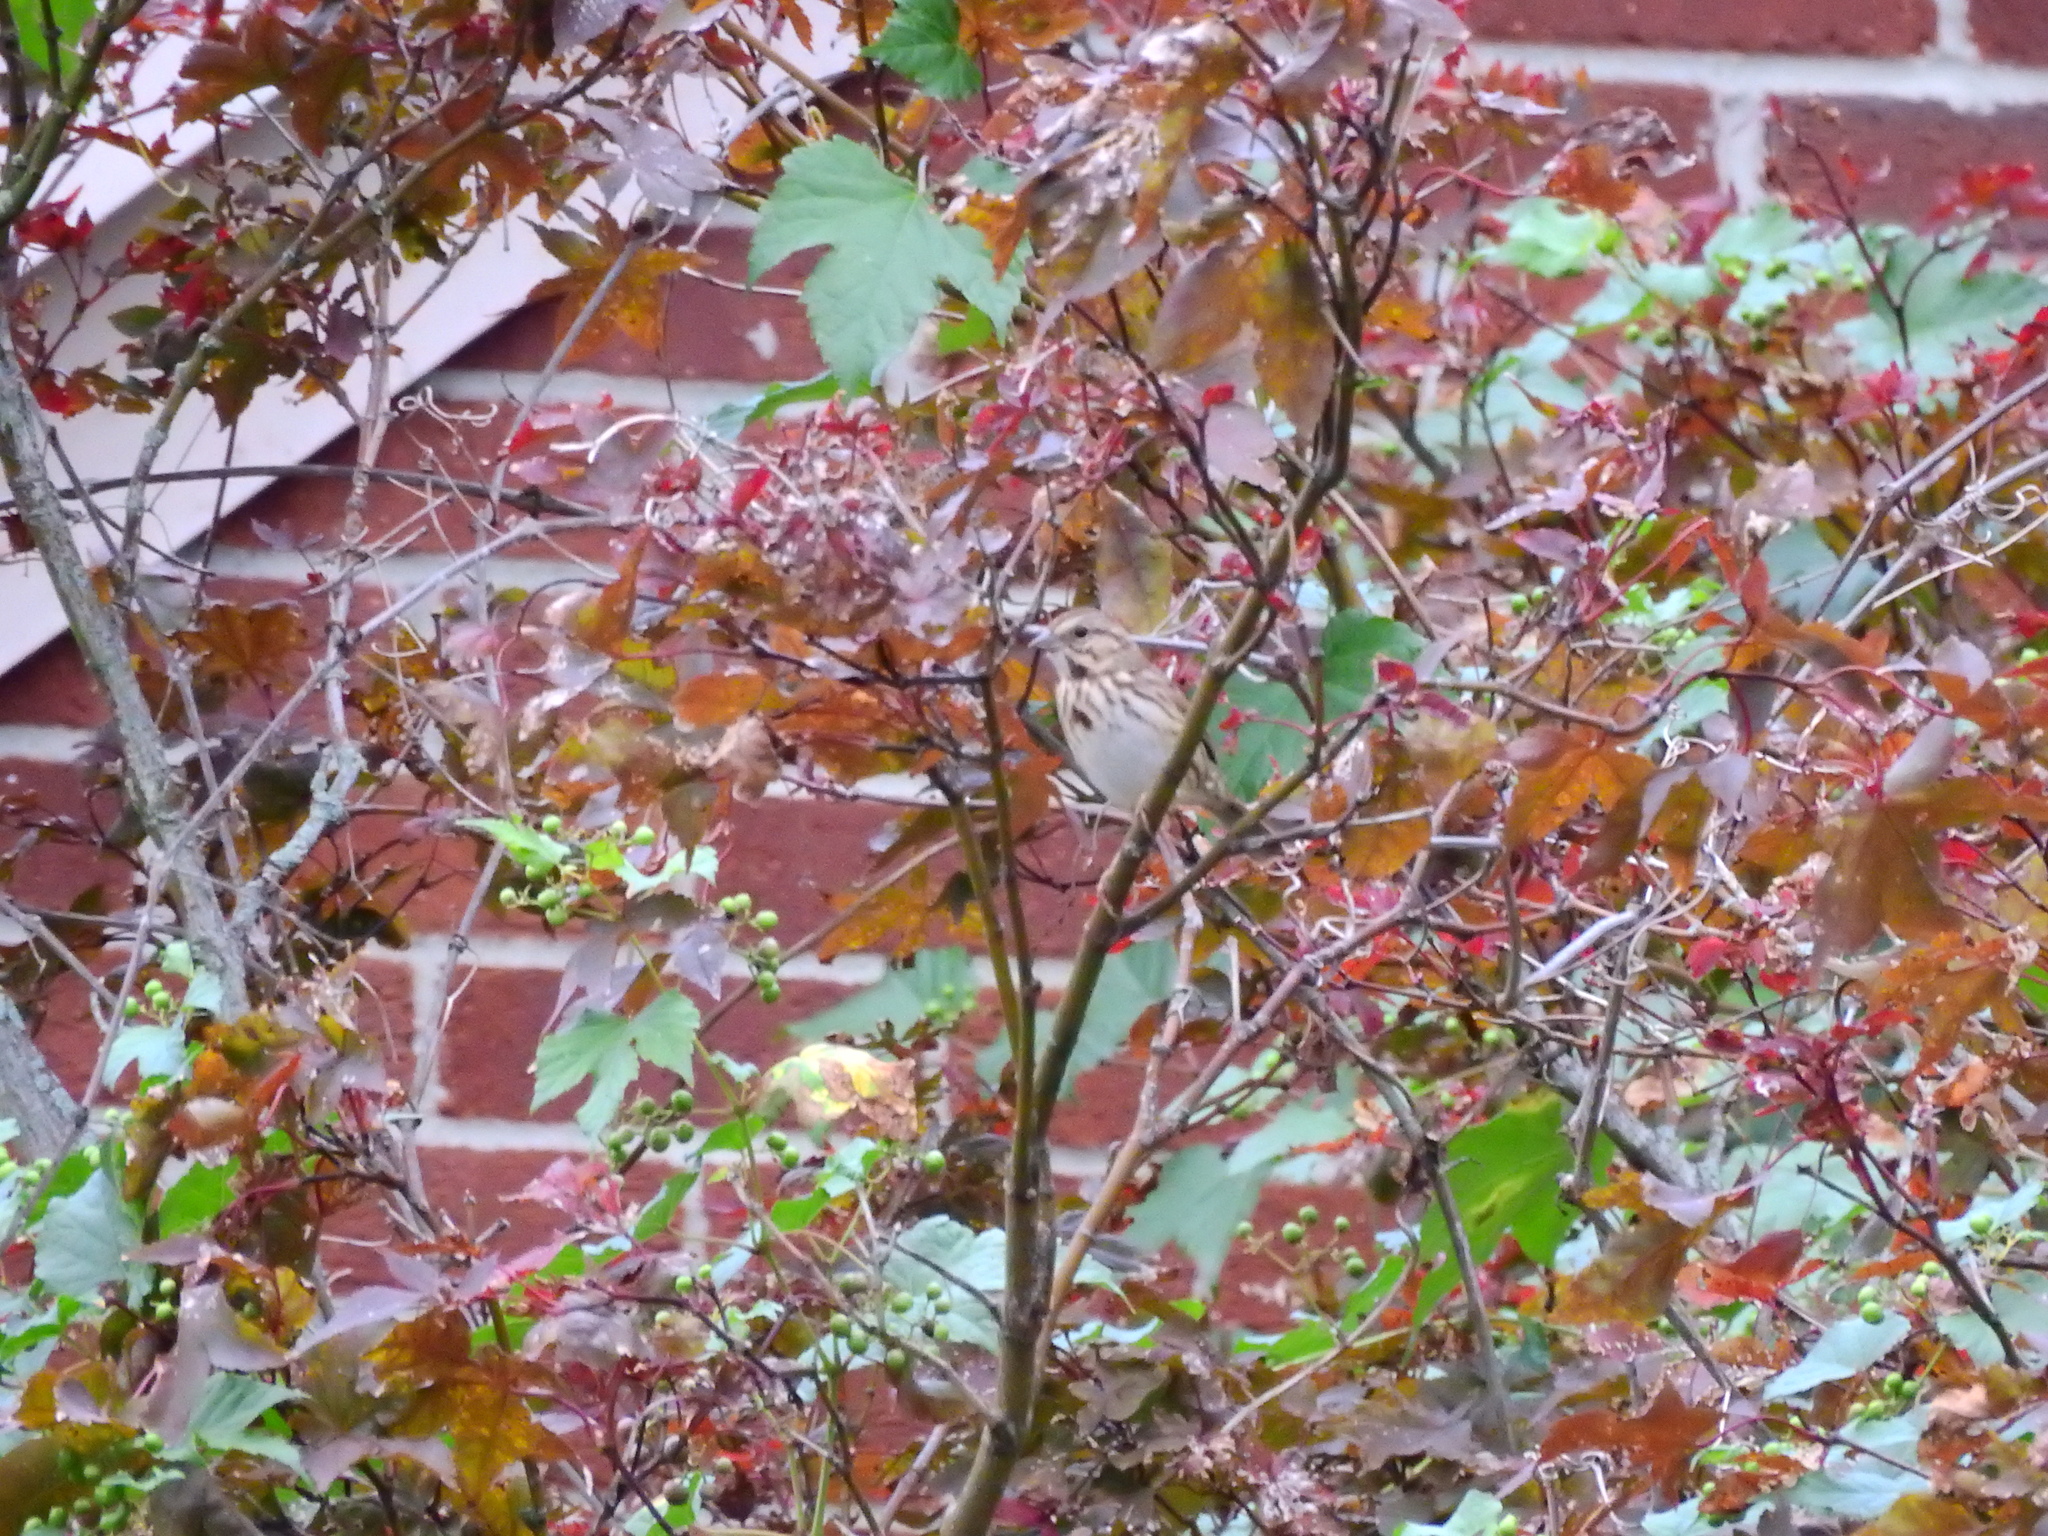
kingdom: Animalia
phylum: Chordata
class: Aves
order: Passeriformes
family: Passerellidae
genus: Melospiza
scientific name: Melospiza melodia
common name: Song sparrow
